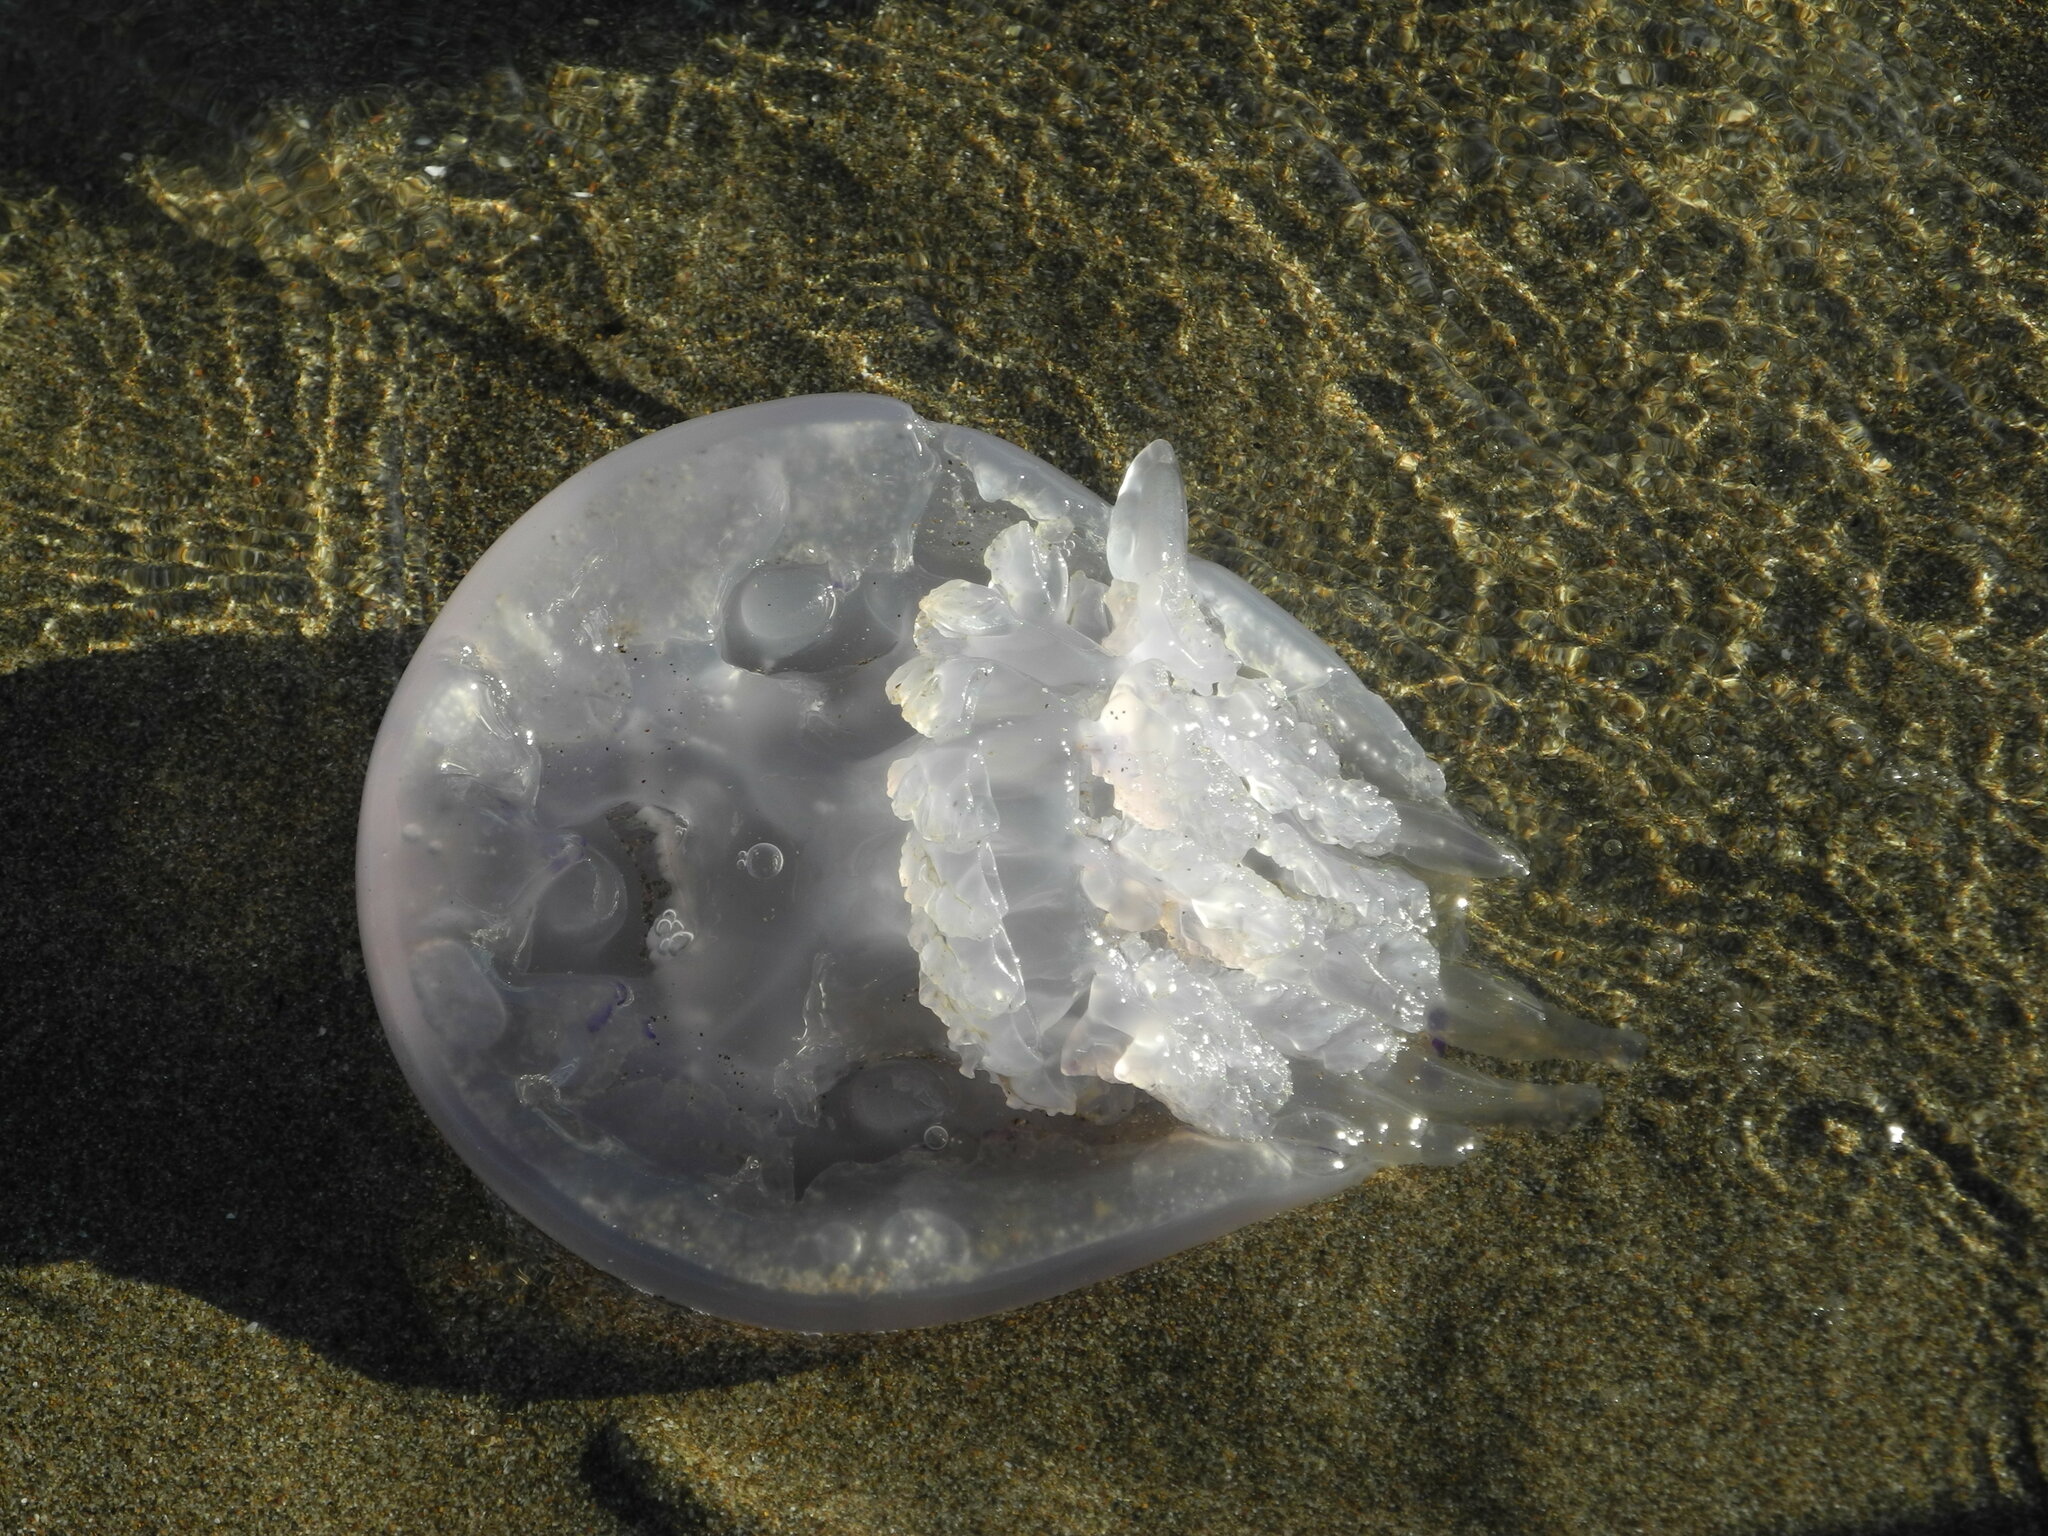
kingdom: Animalia
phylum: Cnidaria
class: Scyphozoa
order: Rhizostomeae
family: Rhizostomatidae
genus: Rhizostoma
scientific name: Rhizostoma pulmo
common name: Barrel jellyfish
